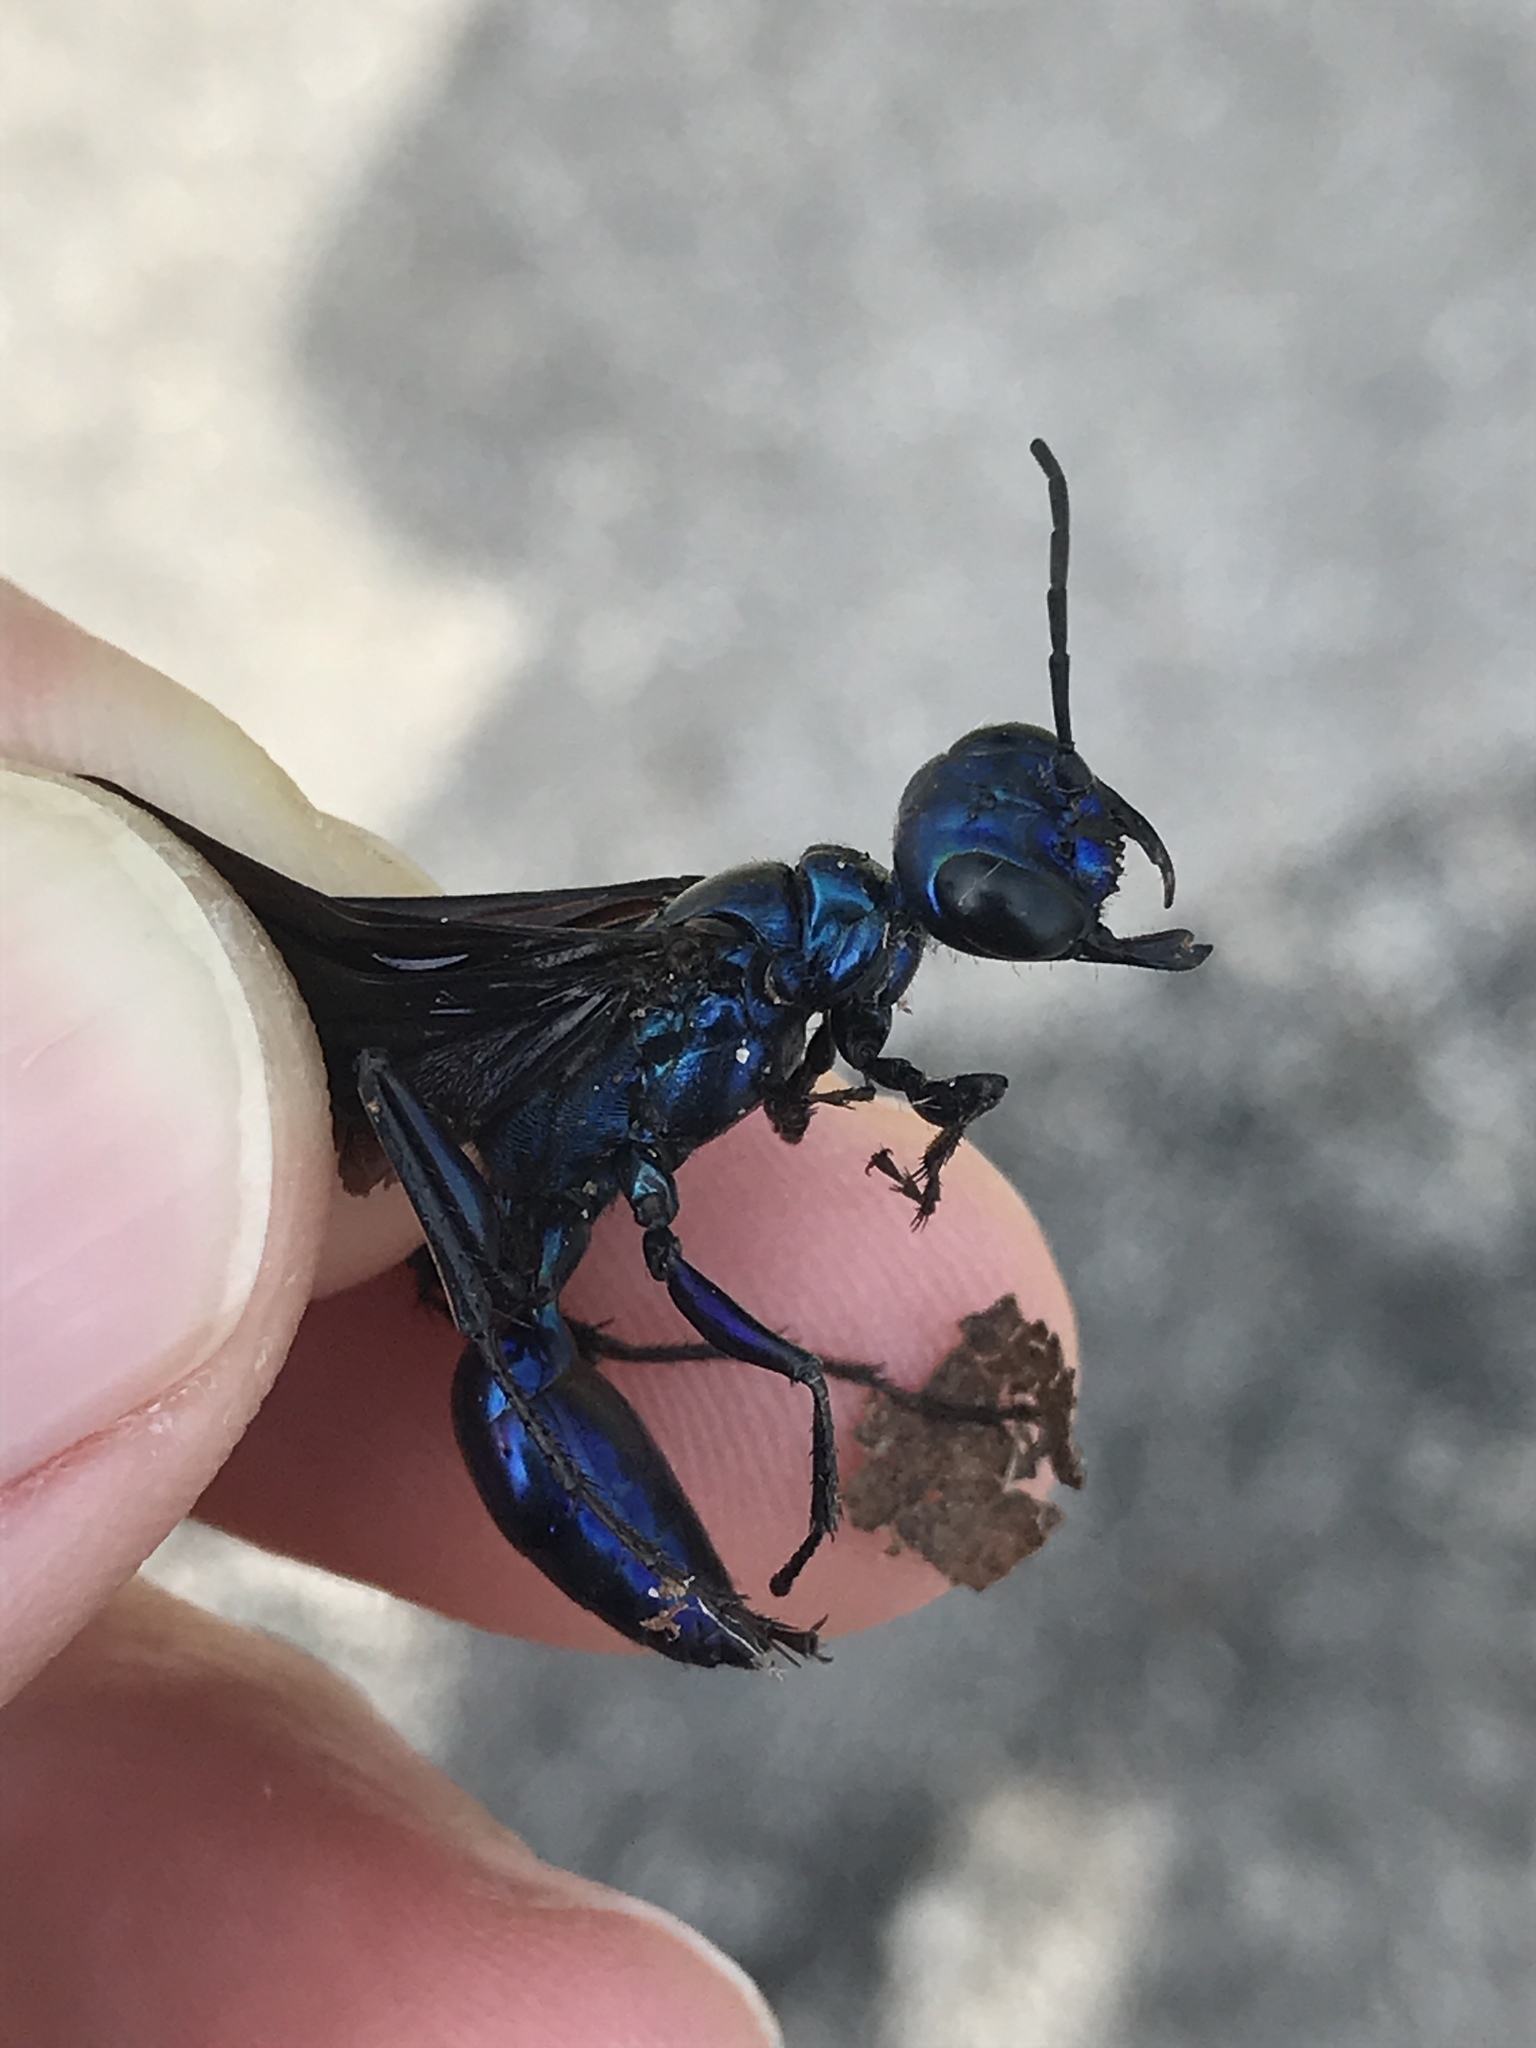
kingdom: Animalia
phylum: Arthropoda
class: Insecta
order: Hymenoptera
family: Sphecidae
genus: Chlorion
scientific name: Chlorion aerarium
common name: Steel-blue cricket hunter
